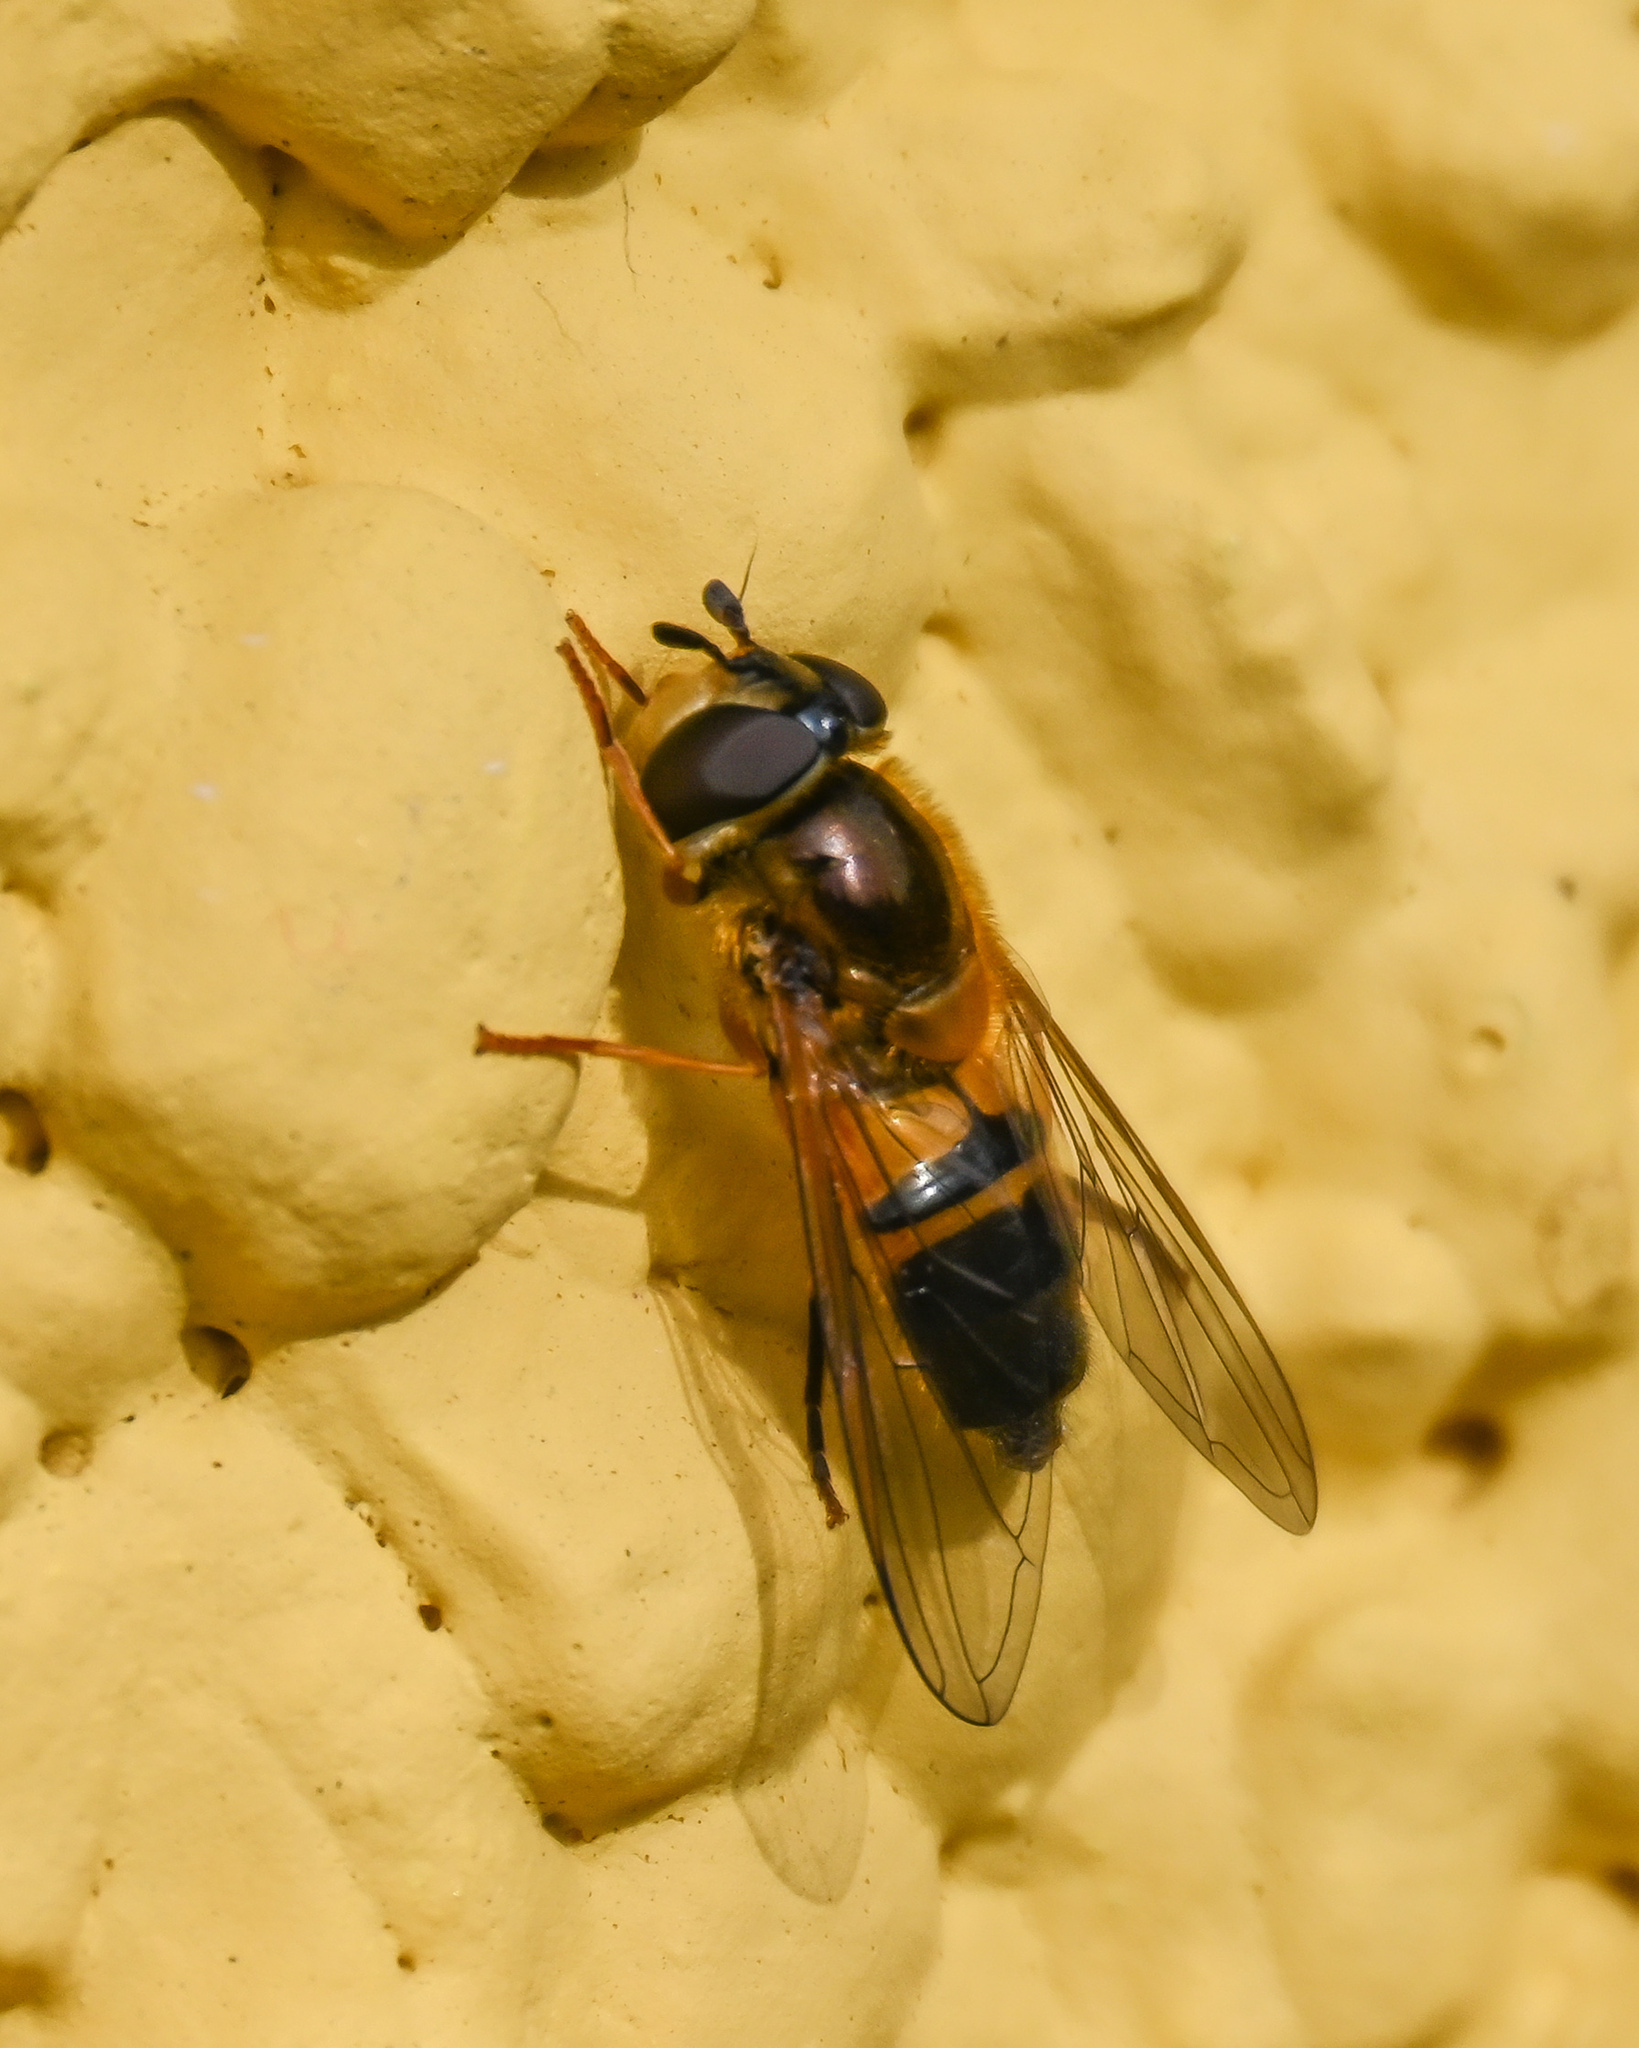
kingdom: Animalia
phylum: Arthropoda
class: Insecta
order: Diptera
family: Syrphidae
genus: Epistrophe
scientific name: Epistrophe eligans
